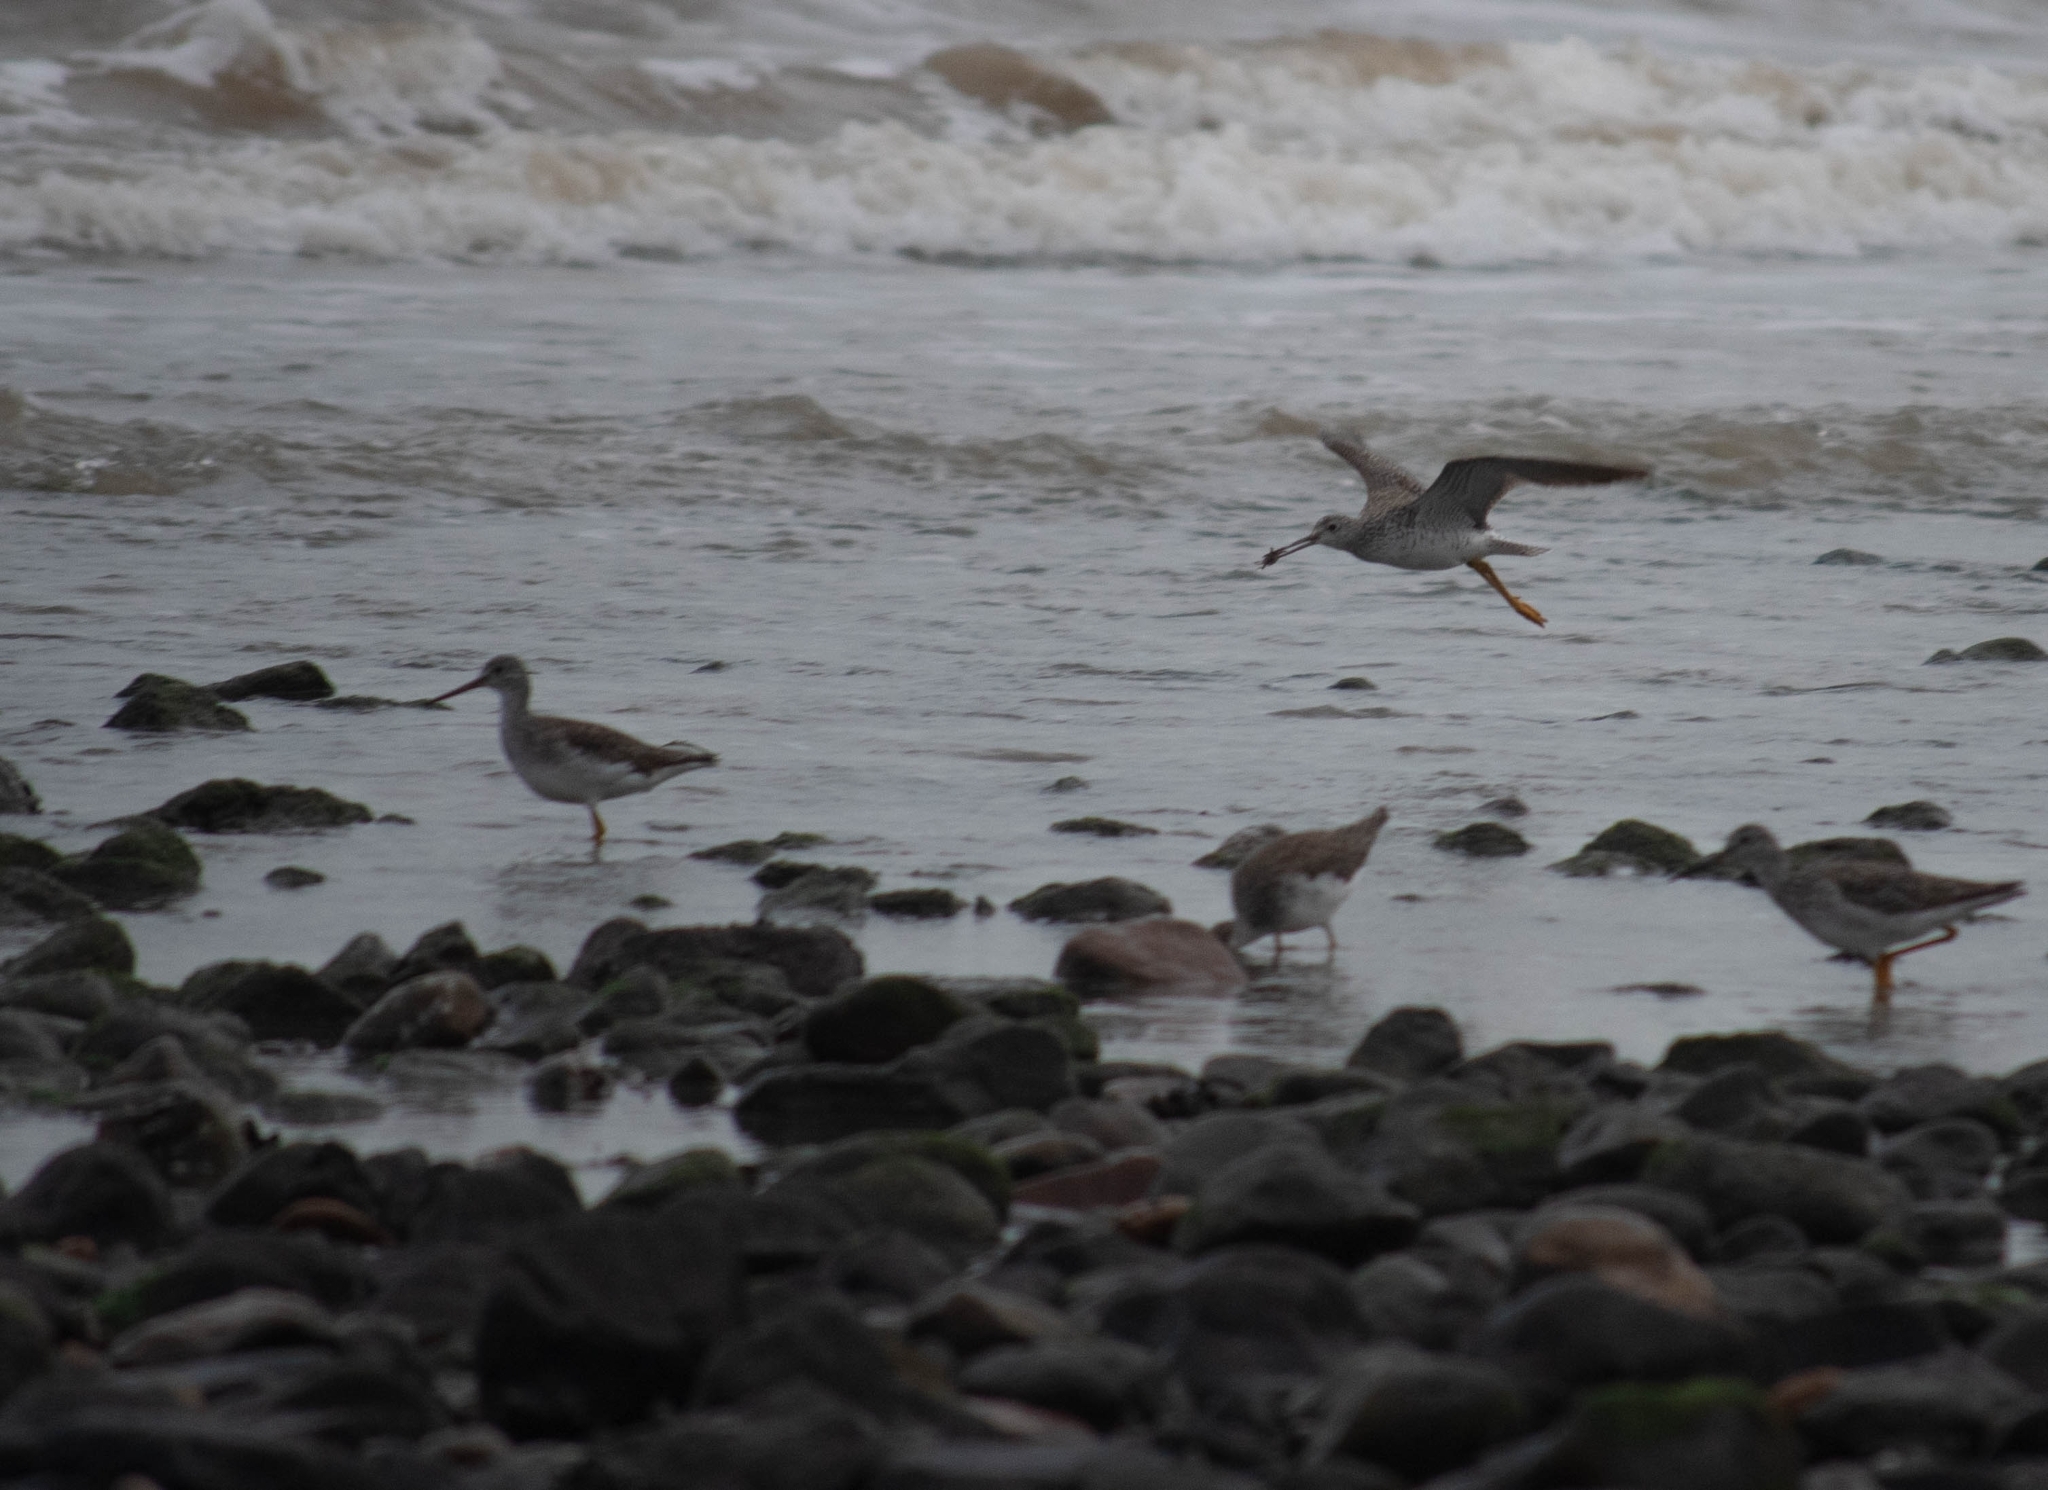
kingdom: Animalia
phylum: Chordata
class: Aves
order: Charadriiformes
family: Scolopacidae
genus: Tringa
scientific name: Tringa melanoleuca
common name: Greater yellowlegs
